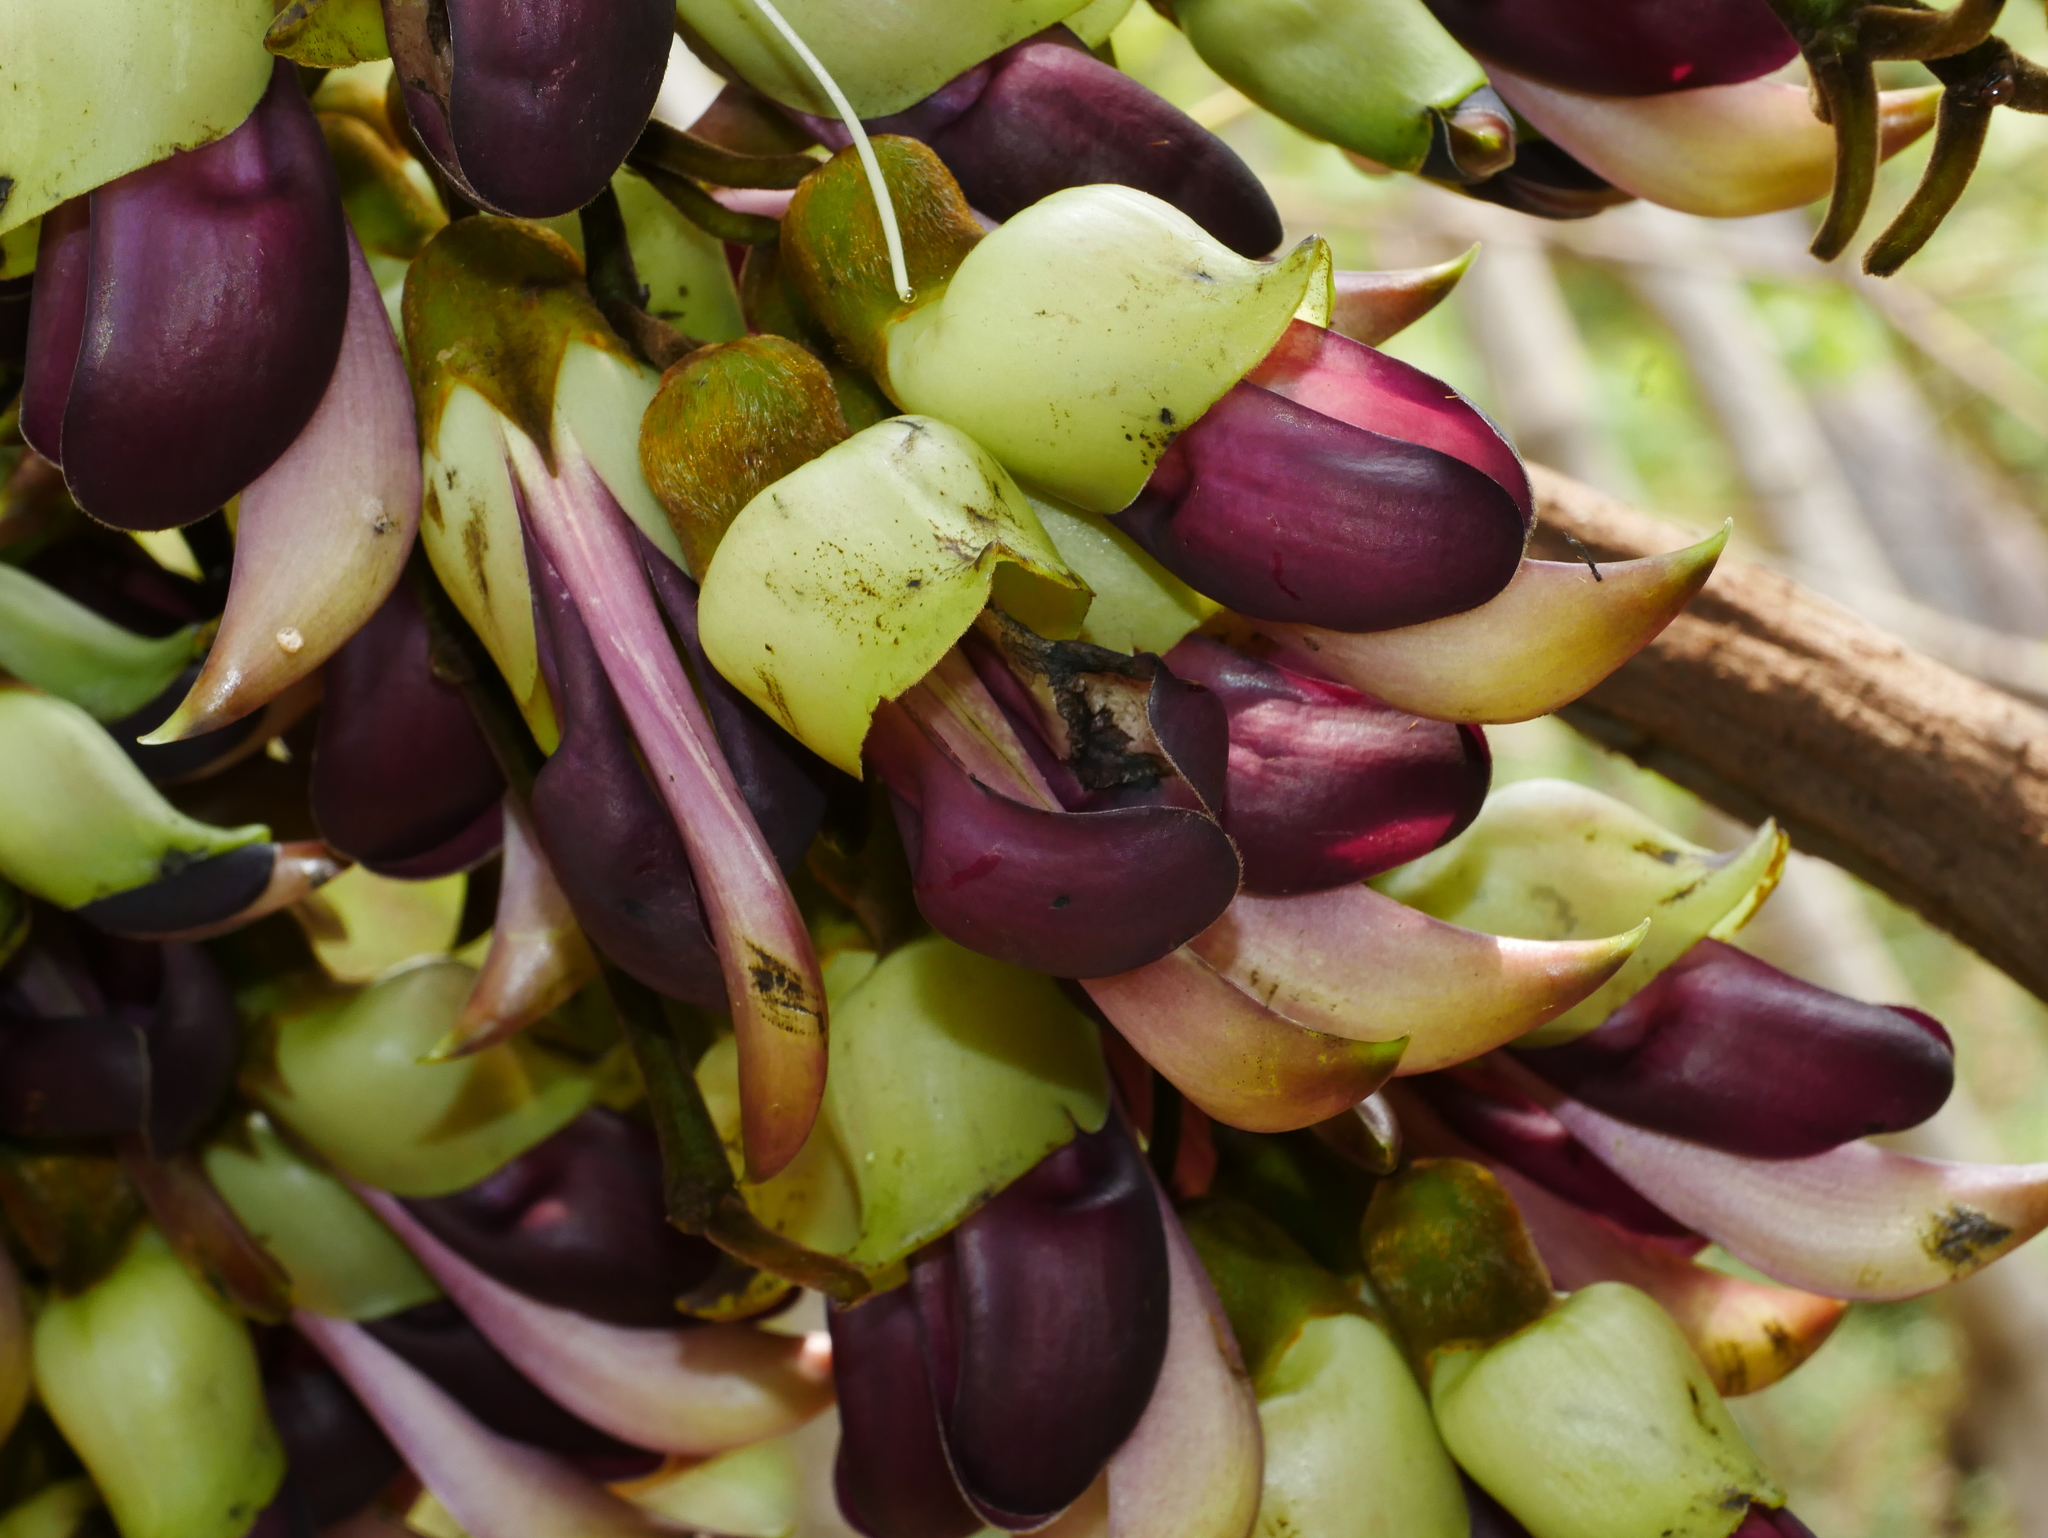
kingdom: Plantae
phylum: Tracheophyta
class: Magnoliopsida
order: Fabales
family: Fabaceae
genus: Mucuna
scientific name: Mucuna macrocarpa
